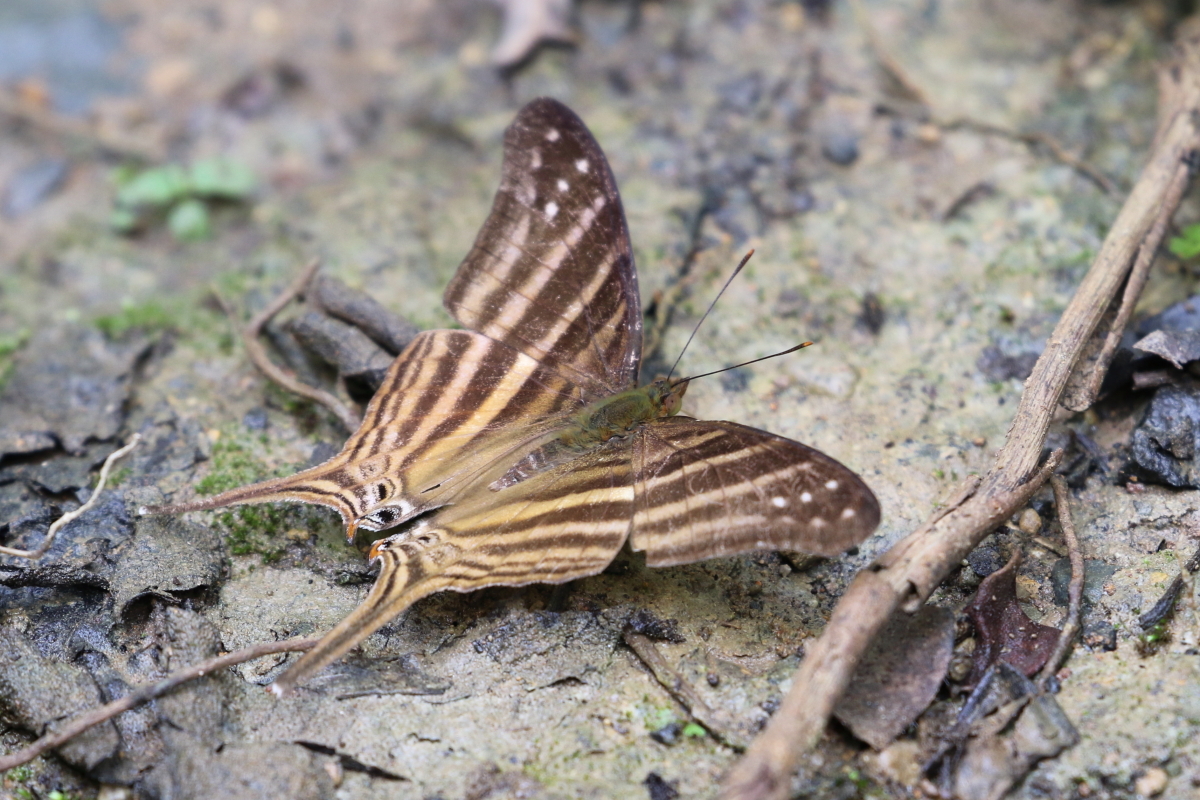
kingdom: Animalia
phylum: Arthropoda
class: Insecta
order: Lepidoptera
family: Nymphalidae
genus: Marpesia
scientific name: Marpesia chiron
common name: Many-banded daggerwing
